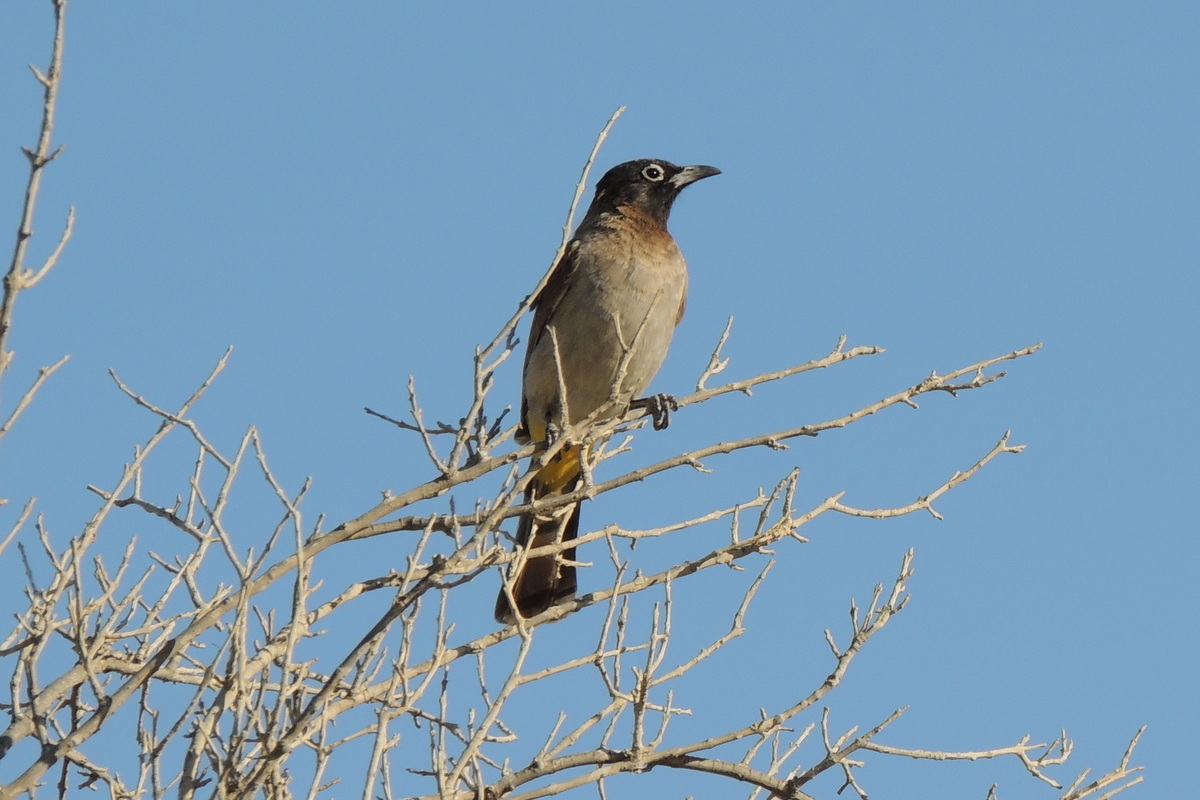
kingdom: Animalia
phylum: Chordata
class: Aves
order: Passeriformes
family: Pycnonotidae
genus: Pycnonotus
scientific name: Pycnonotus xanthopygos
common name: White-spectacled bulbul
